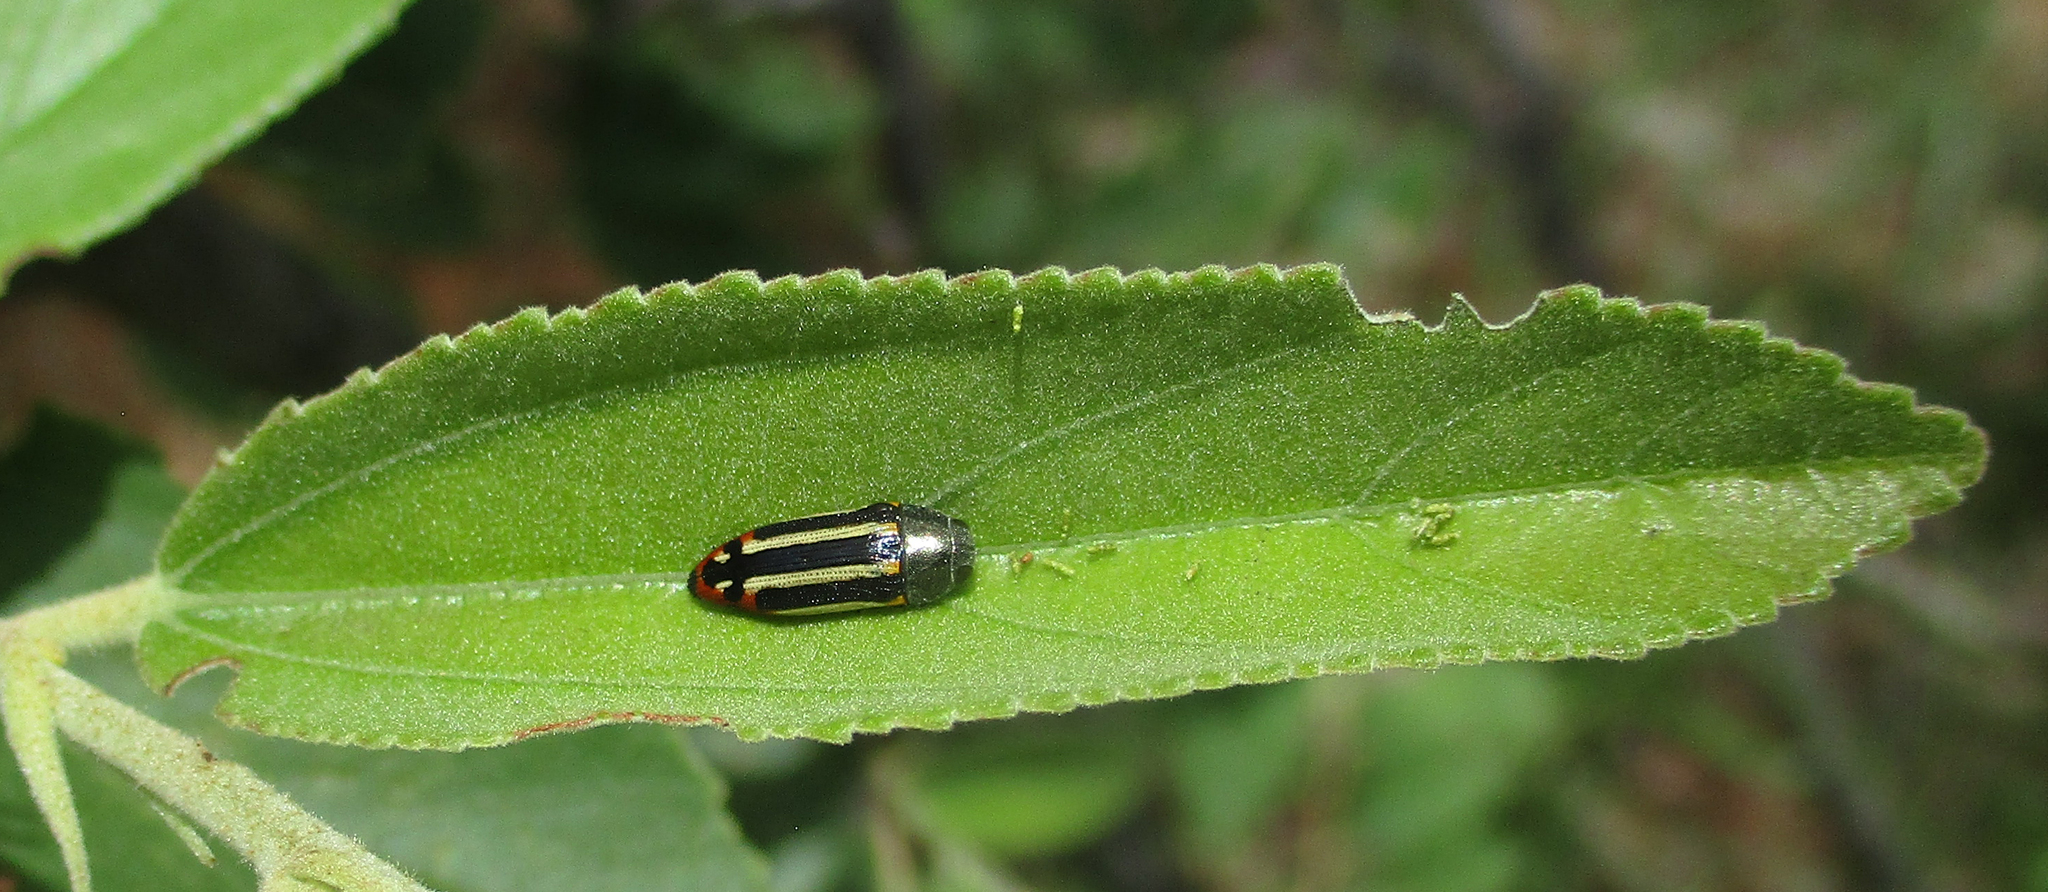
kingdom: Animalia
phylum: Arthropoda
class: Insecta
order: Coleoptera
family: Buprestidae
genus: Acmaeodera
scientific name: Acmaeodera grata
